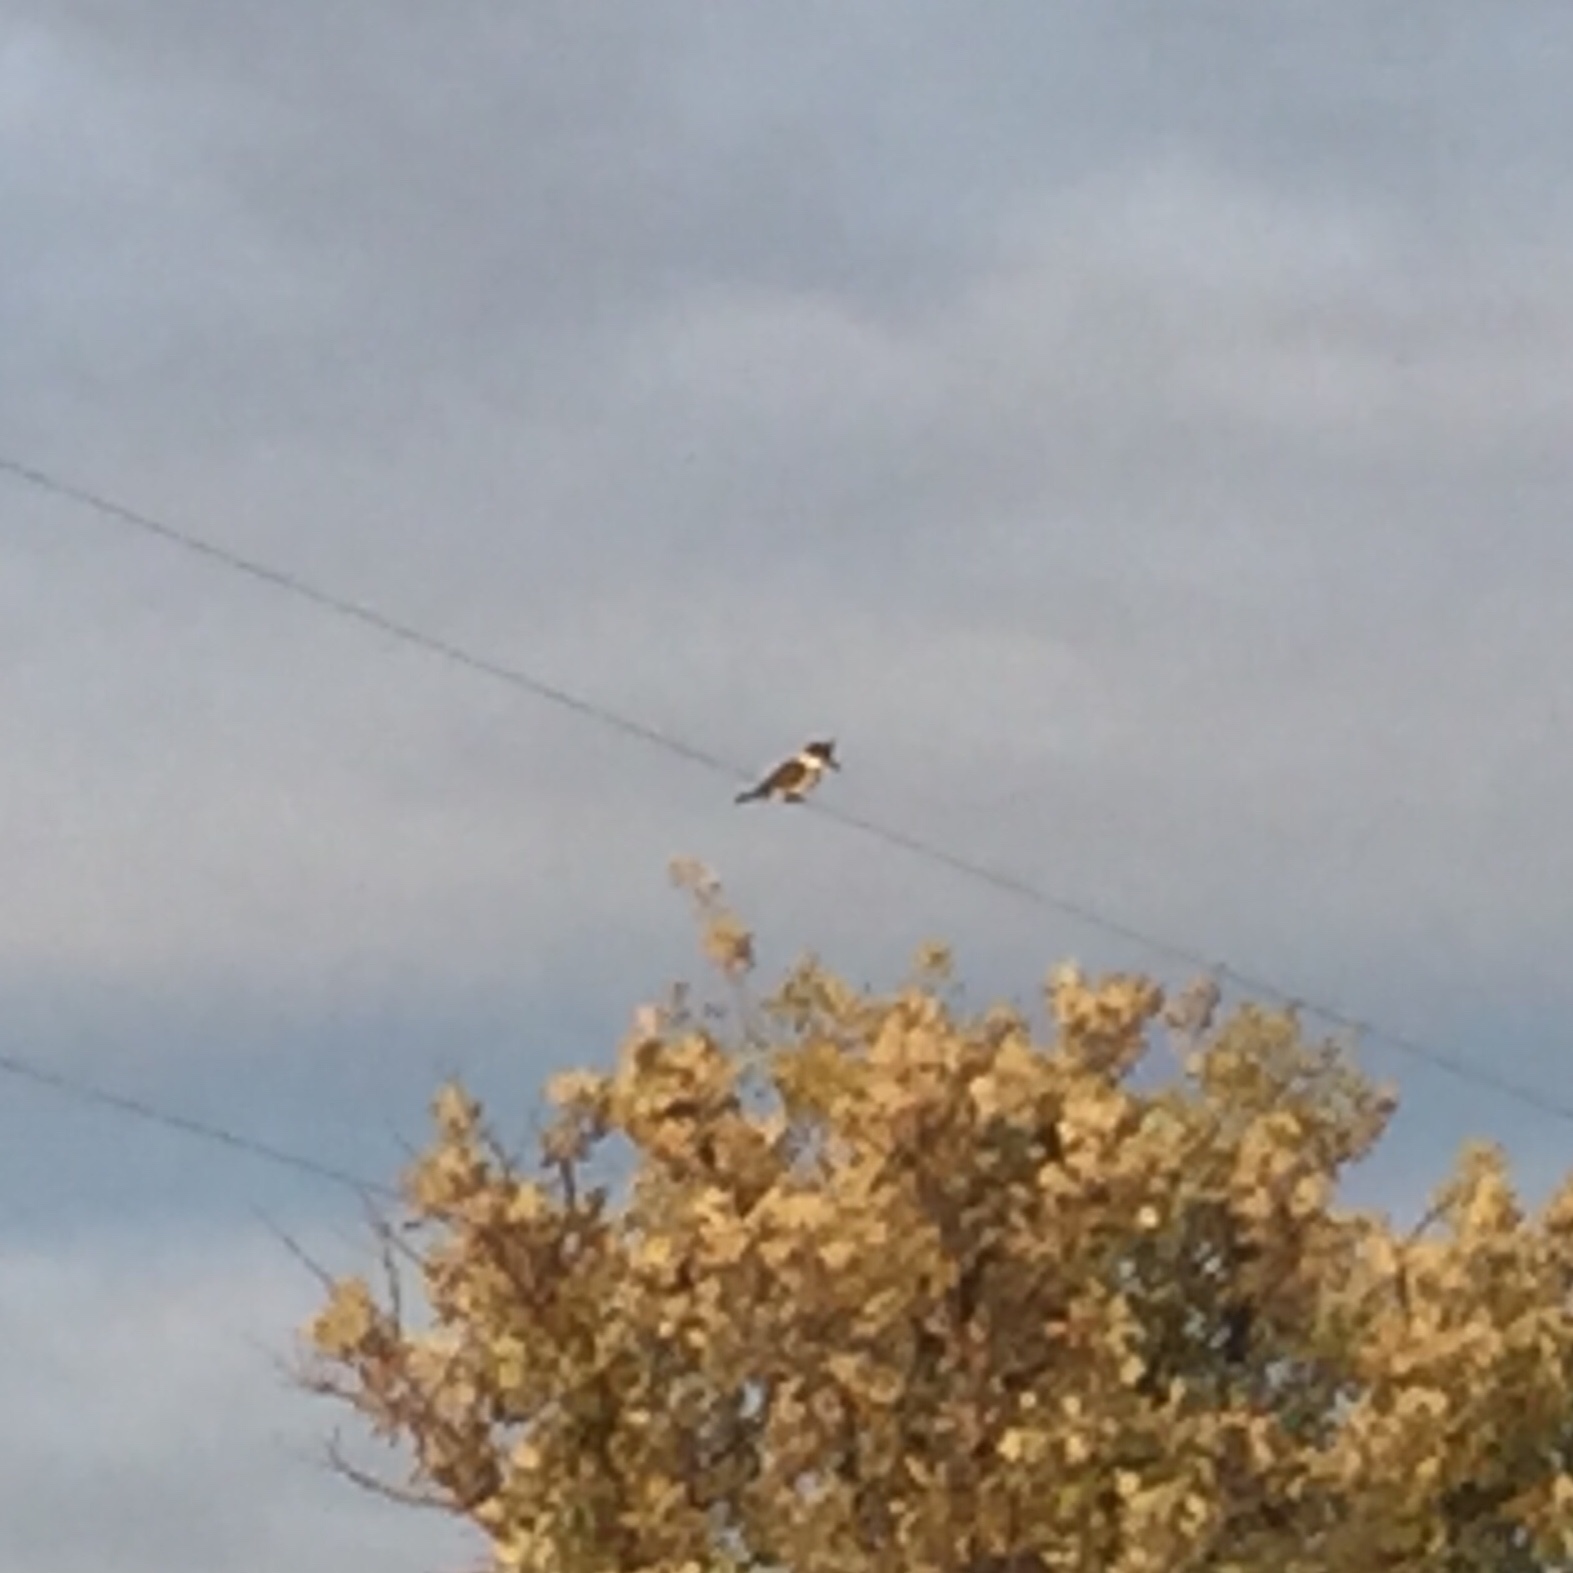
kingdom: Animalia
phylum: Chordata
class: Aves
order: Coraciiformes
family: Alcedinidae
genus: Megaceryle
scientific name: Megaceryle alcyon
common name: Belted kingfisher
